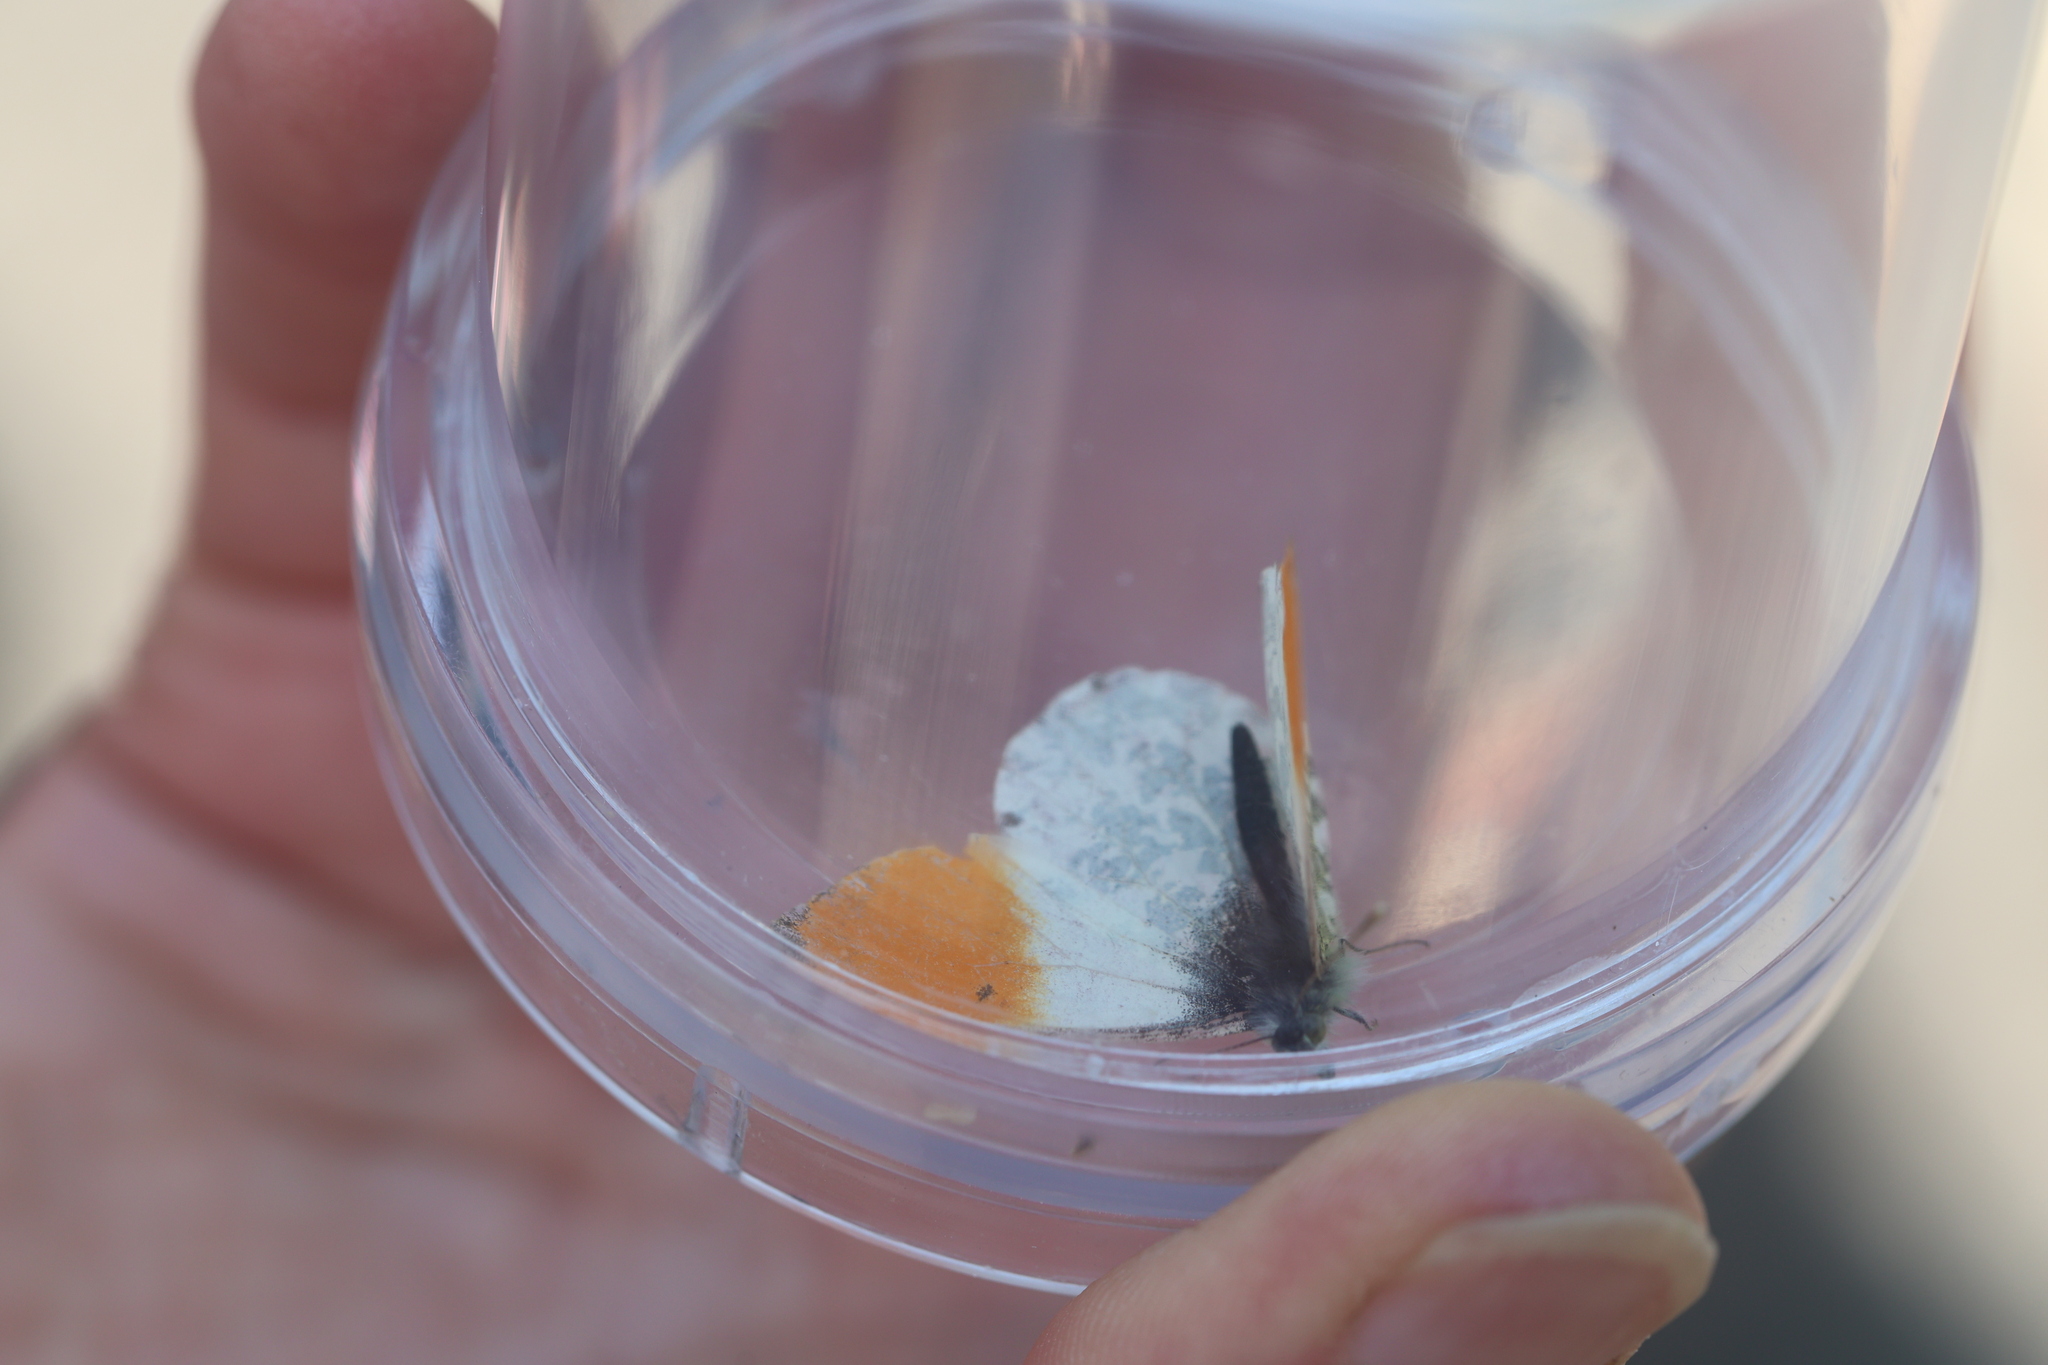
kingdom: Animalia
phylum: Arthropoda
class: Insecta
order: Lepidoptera
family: Pieridae
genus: Anthocharis
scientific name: Anthocharis cardamines
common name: Orange-tip
